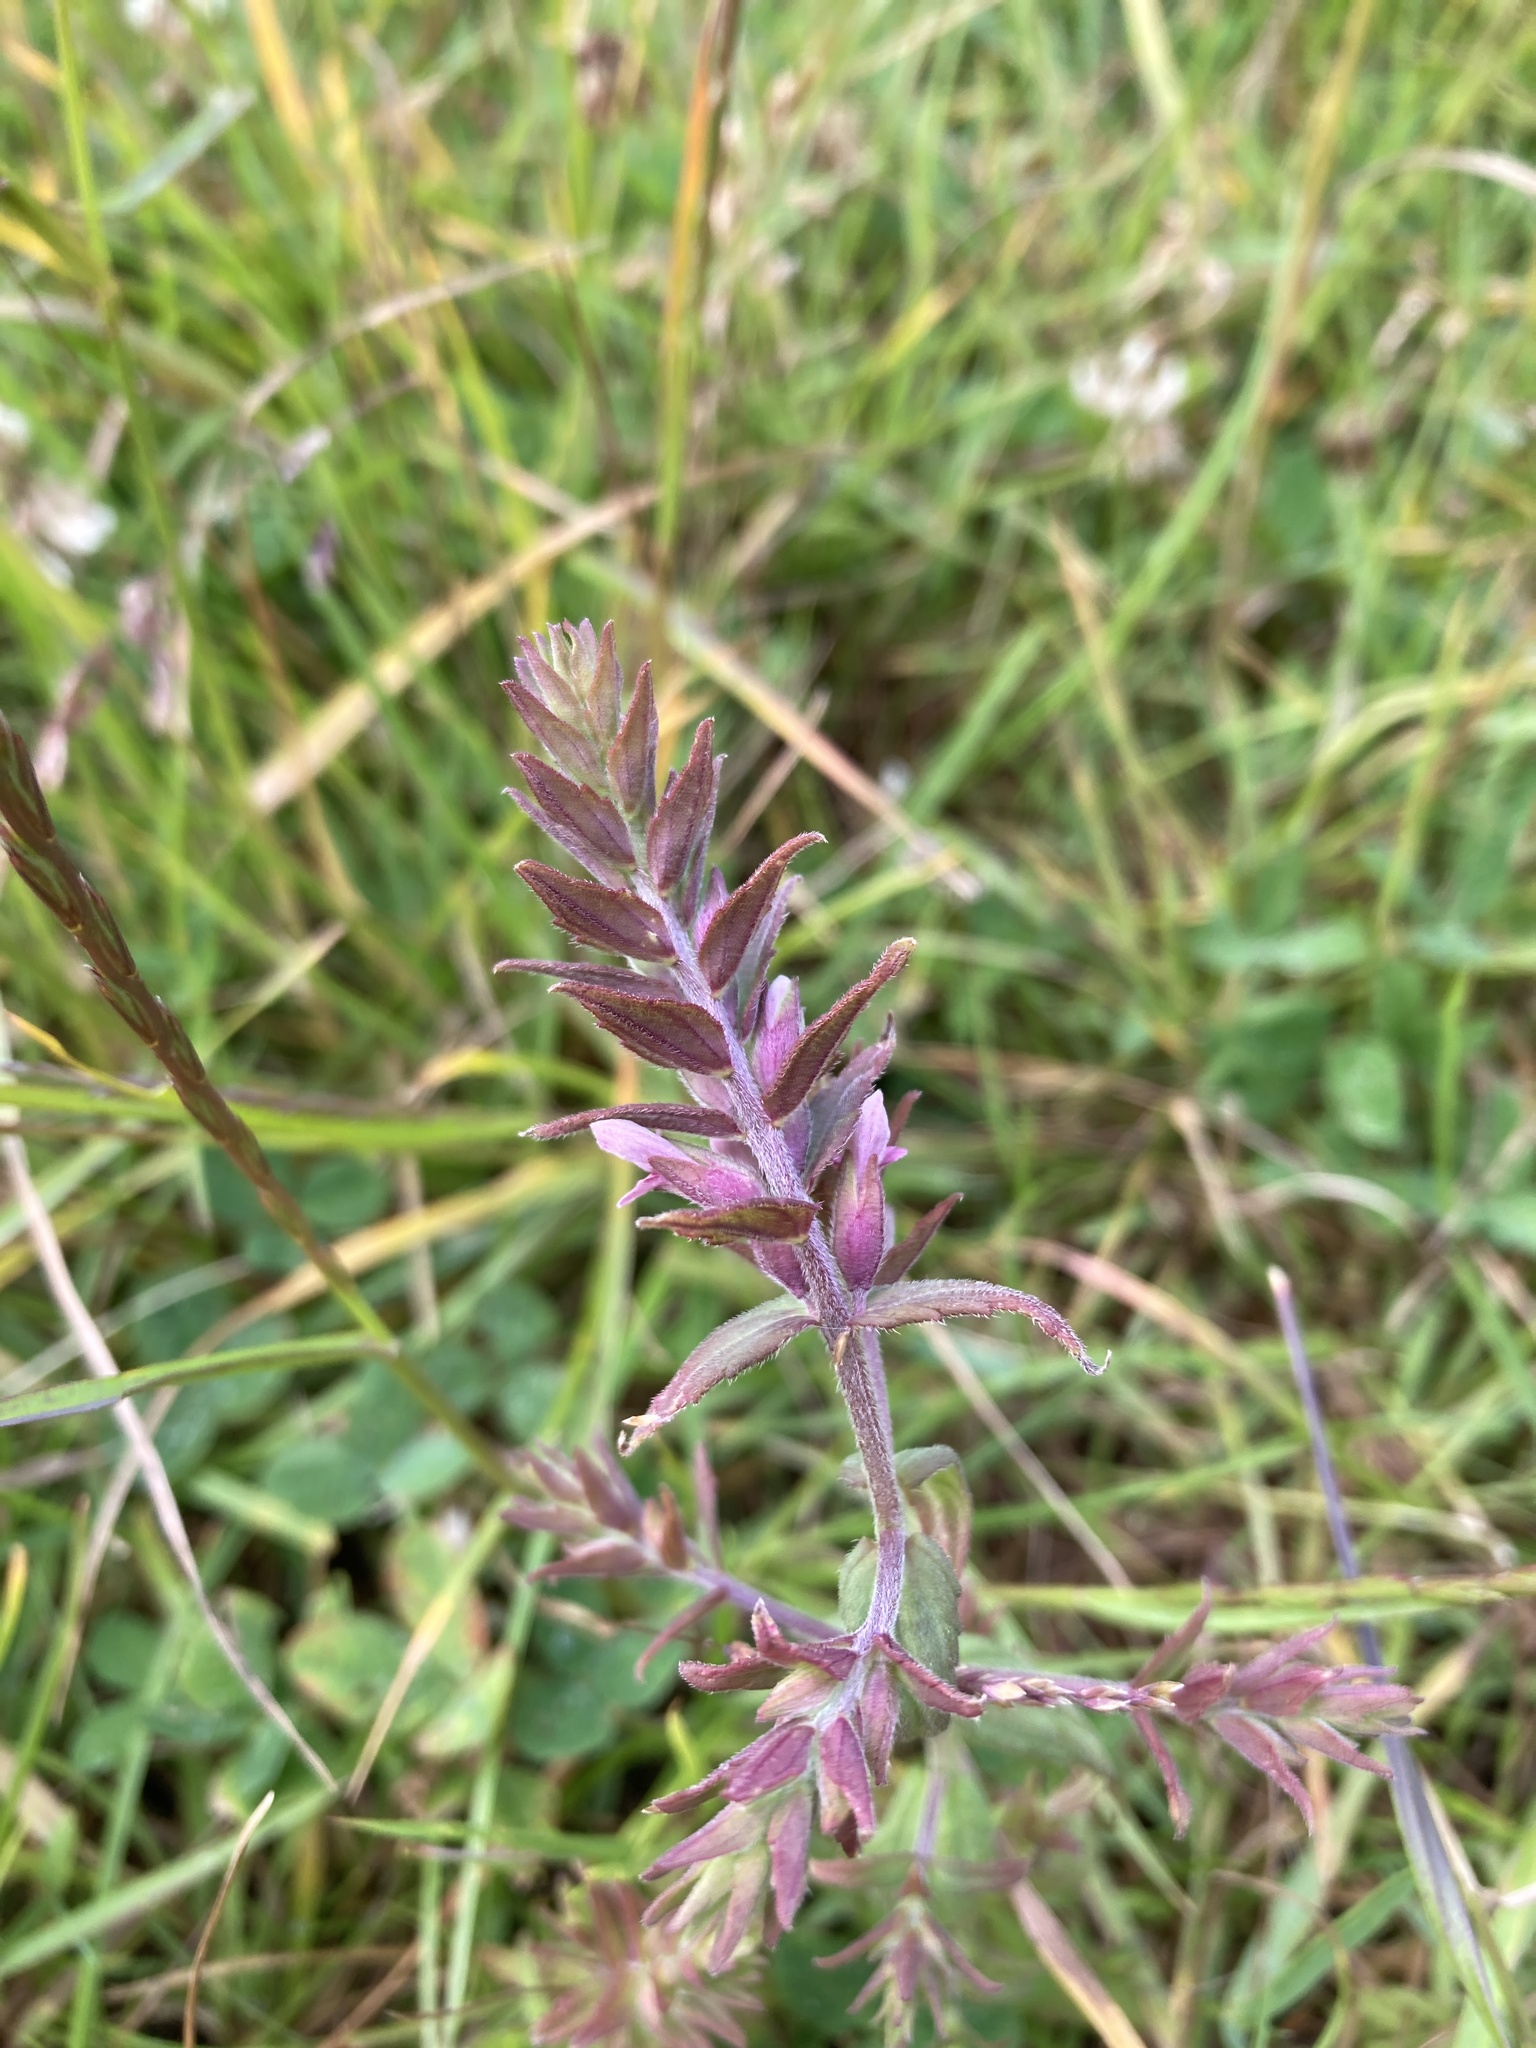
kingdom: Plantae
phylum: Tracheophyta
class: Magnoliopsida
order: Lamiales
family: Orobanchaceae
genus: Odontites
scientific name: Odontites vulgaris
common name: Broomrape
